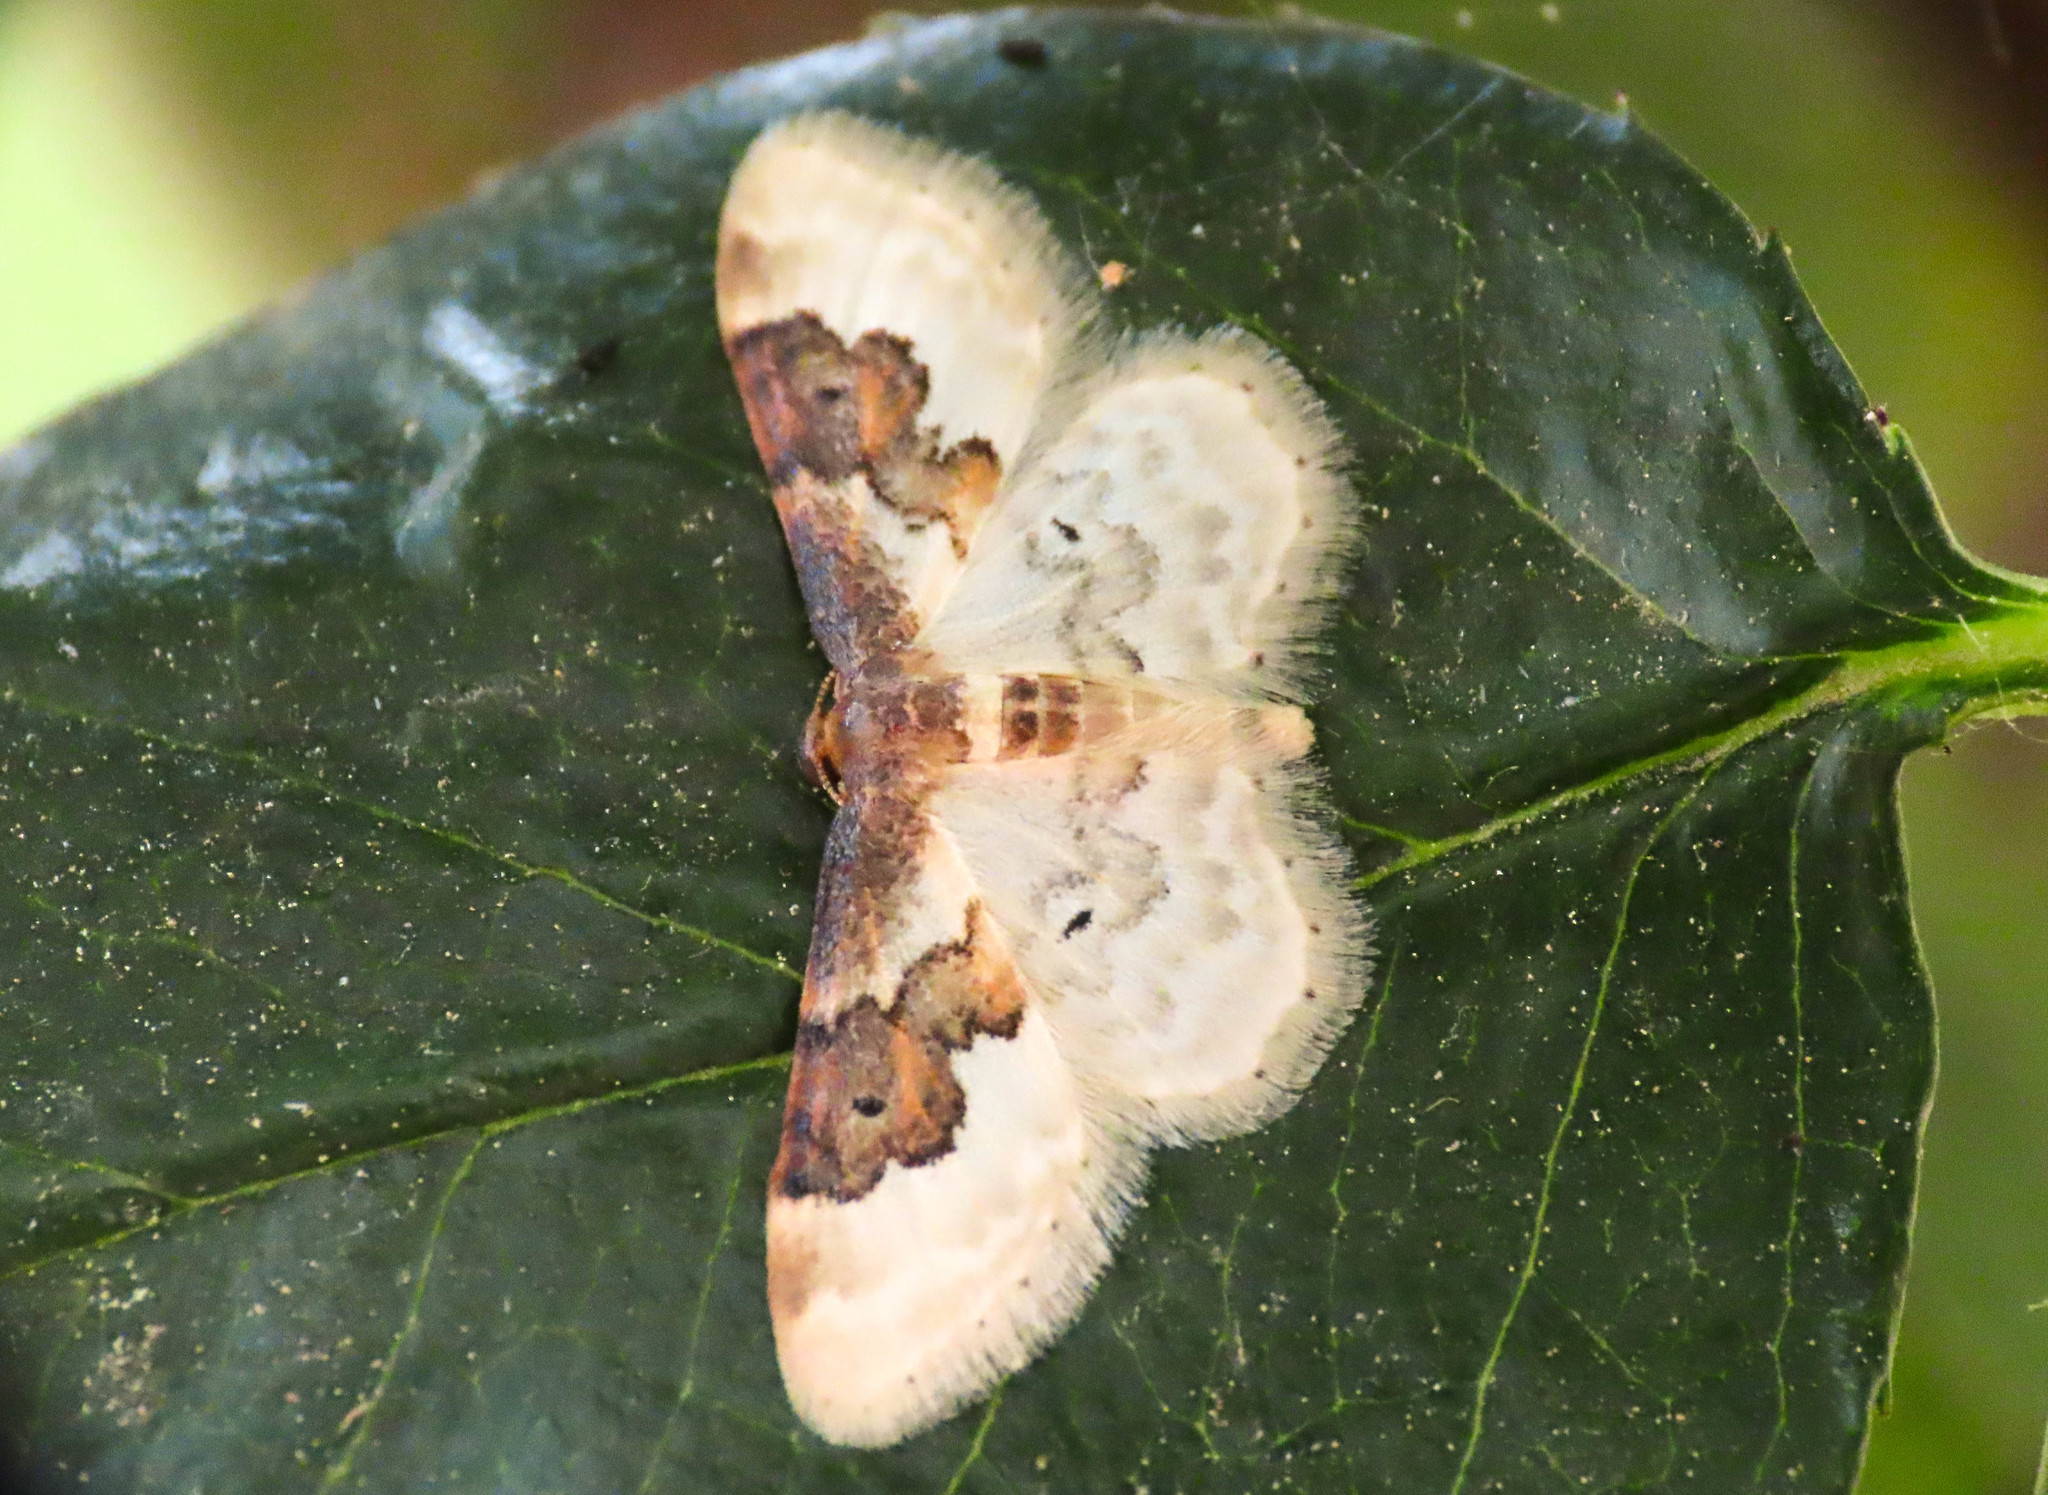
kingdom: Animalia
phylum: Arthropoda
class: Insecta
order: Lepidoptera
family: Geometridae
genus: Idaea
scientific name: Idaea rusticata
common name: Least carpet
